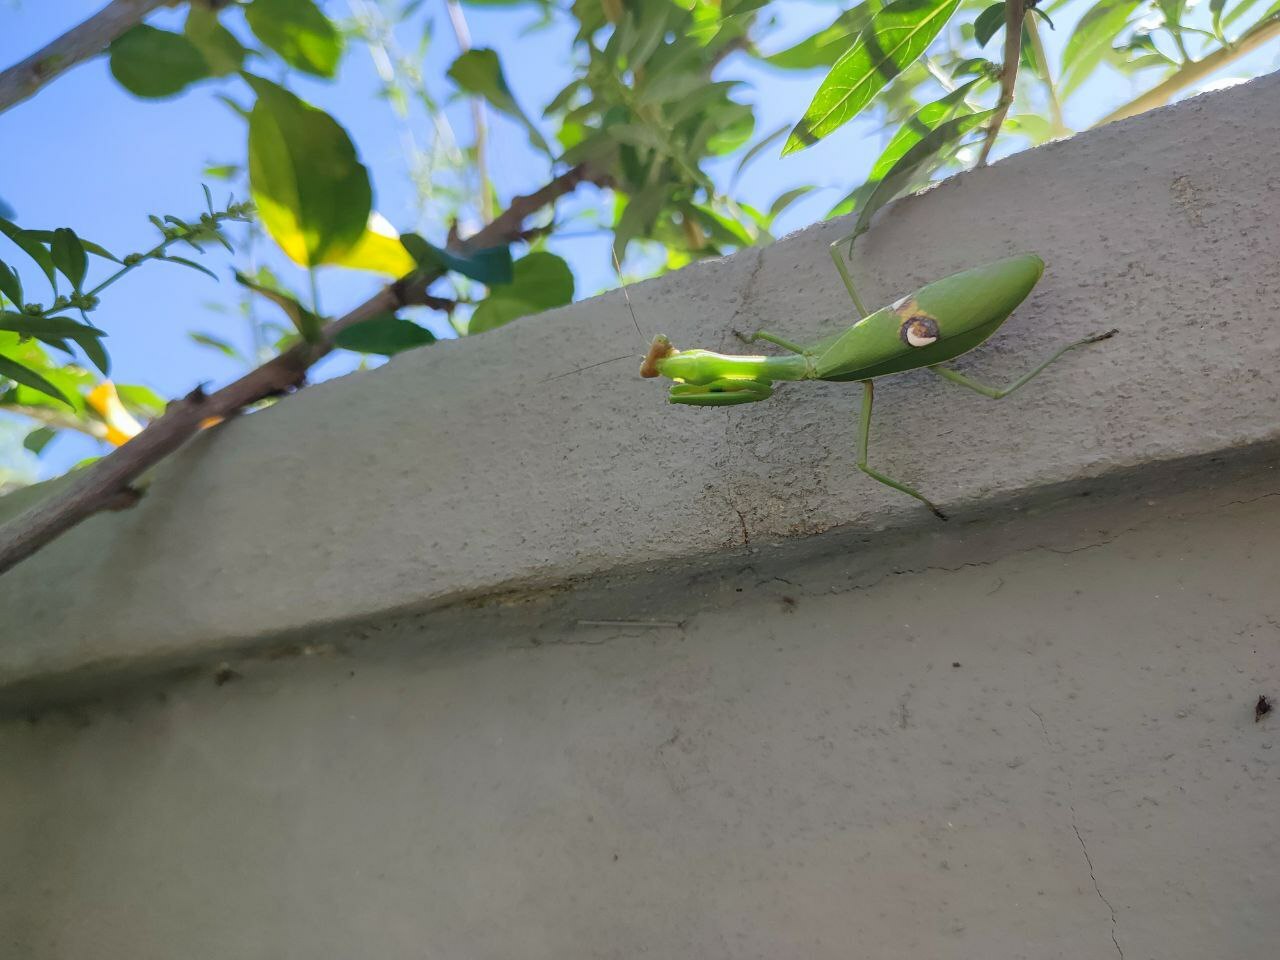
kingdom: Animalia
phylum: Arthropoda
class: Insecta
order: Mantodea
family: Mantidae
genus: Stagmatoptera
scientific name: Stagmatoptera hyaloptera
